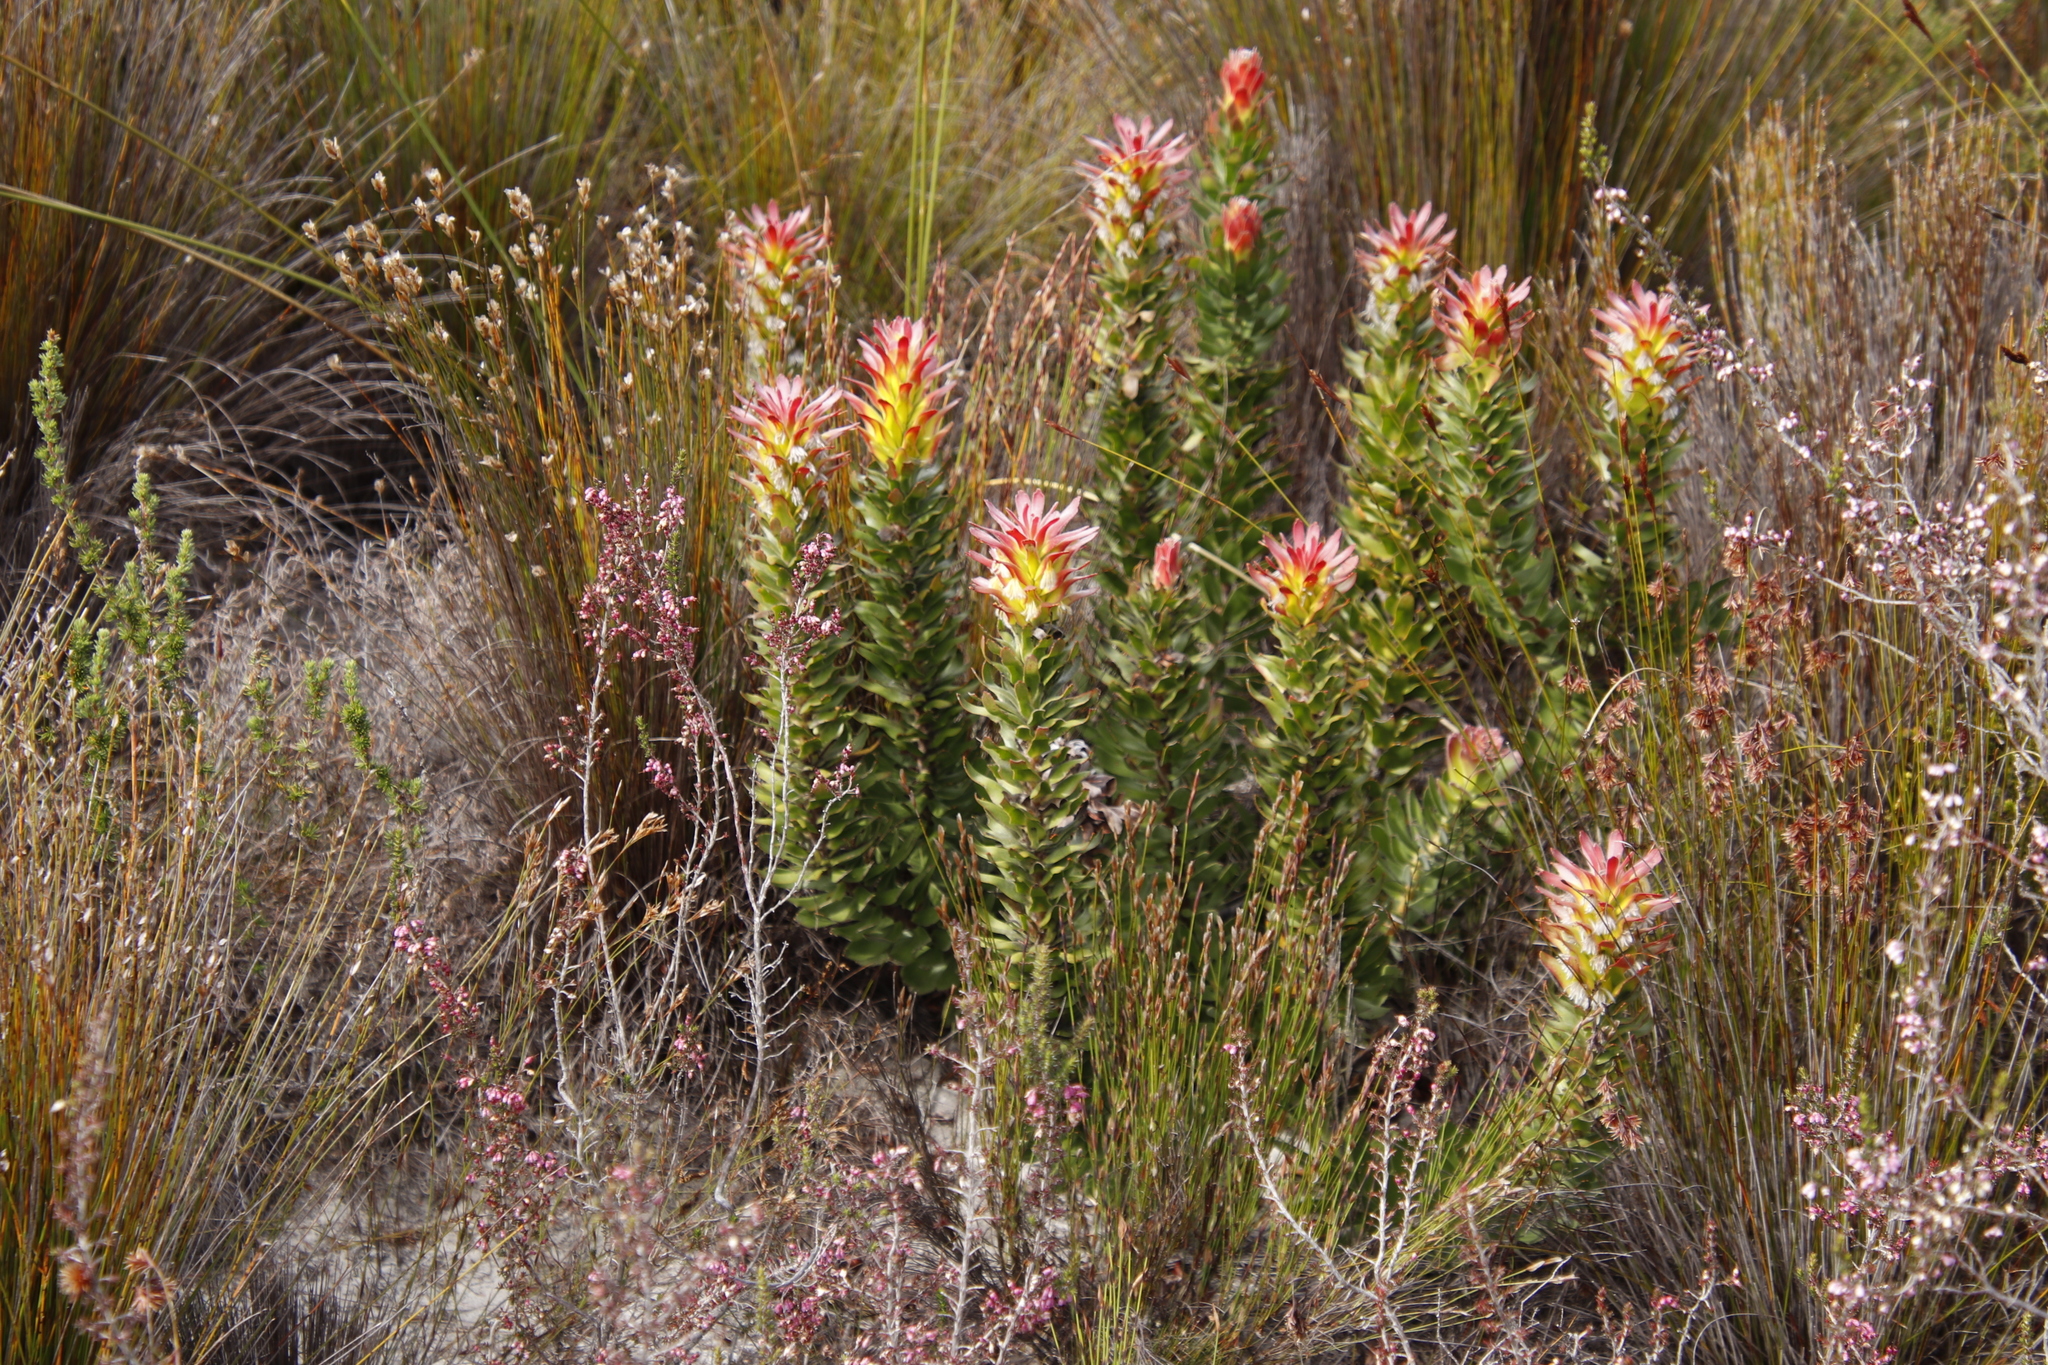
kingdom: Plantae
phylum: Tracheophyta
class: Magnoliopsida
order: Proteales
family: Proteaceae
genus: Mimetes
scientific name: Mimetes cucullatus
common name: Common pagoda
